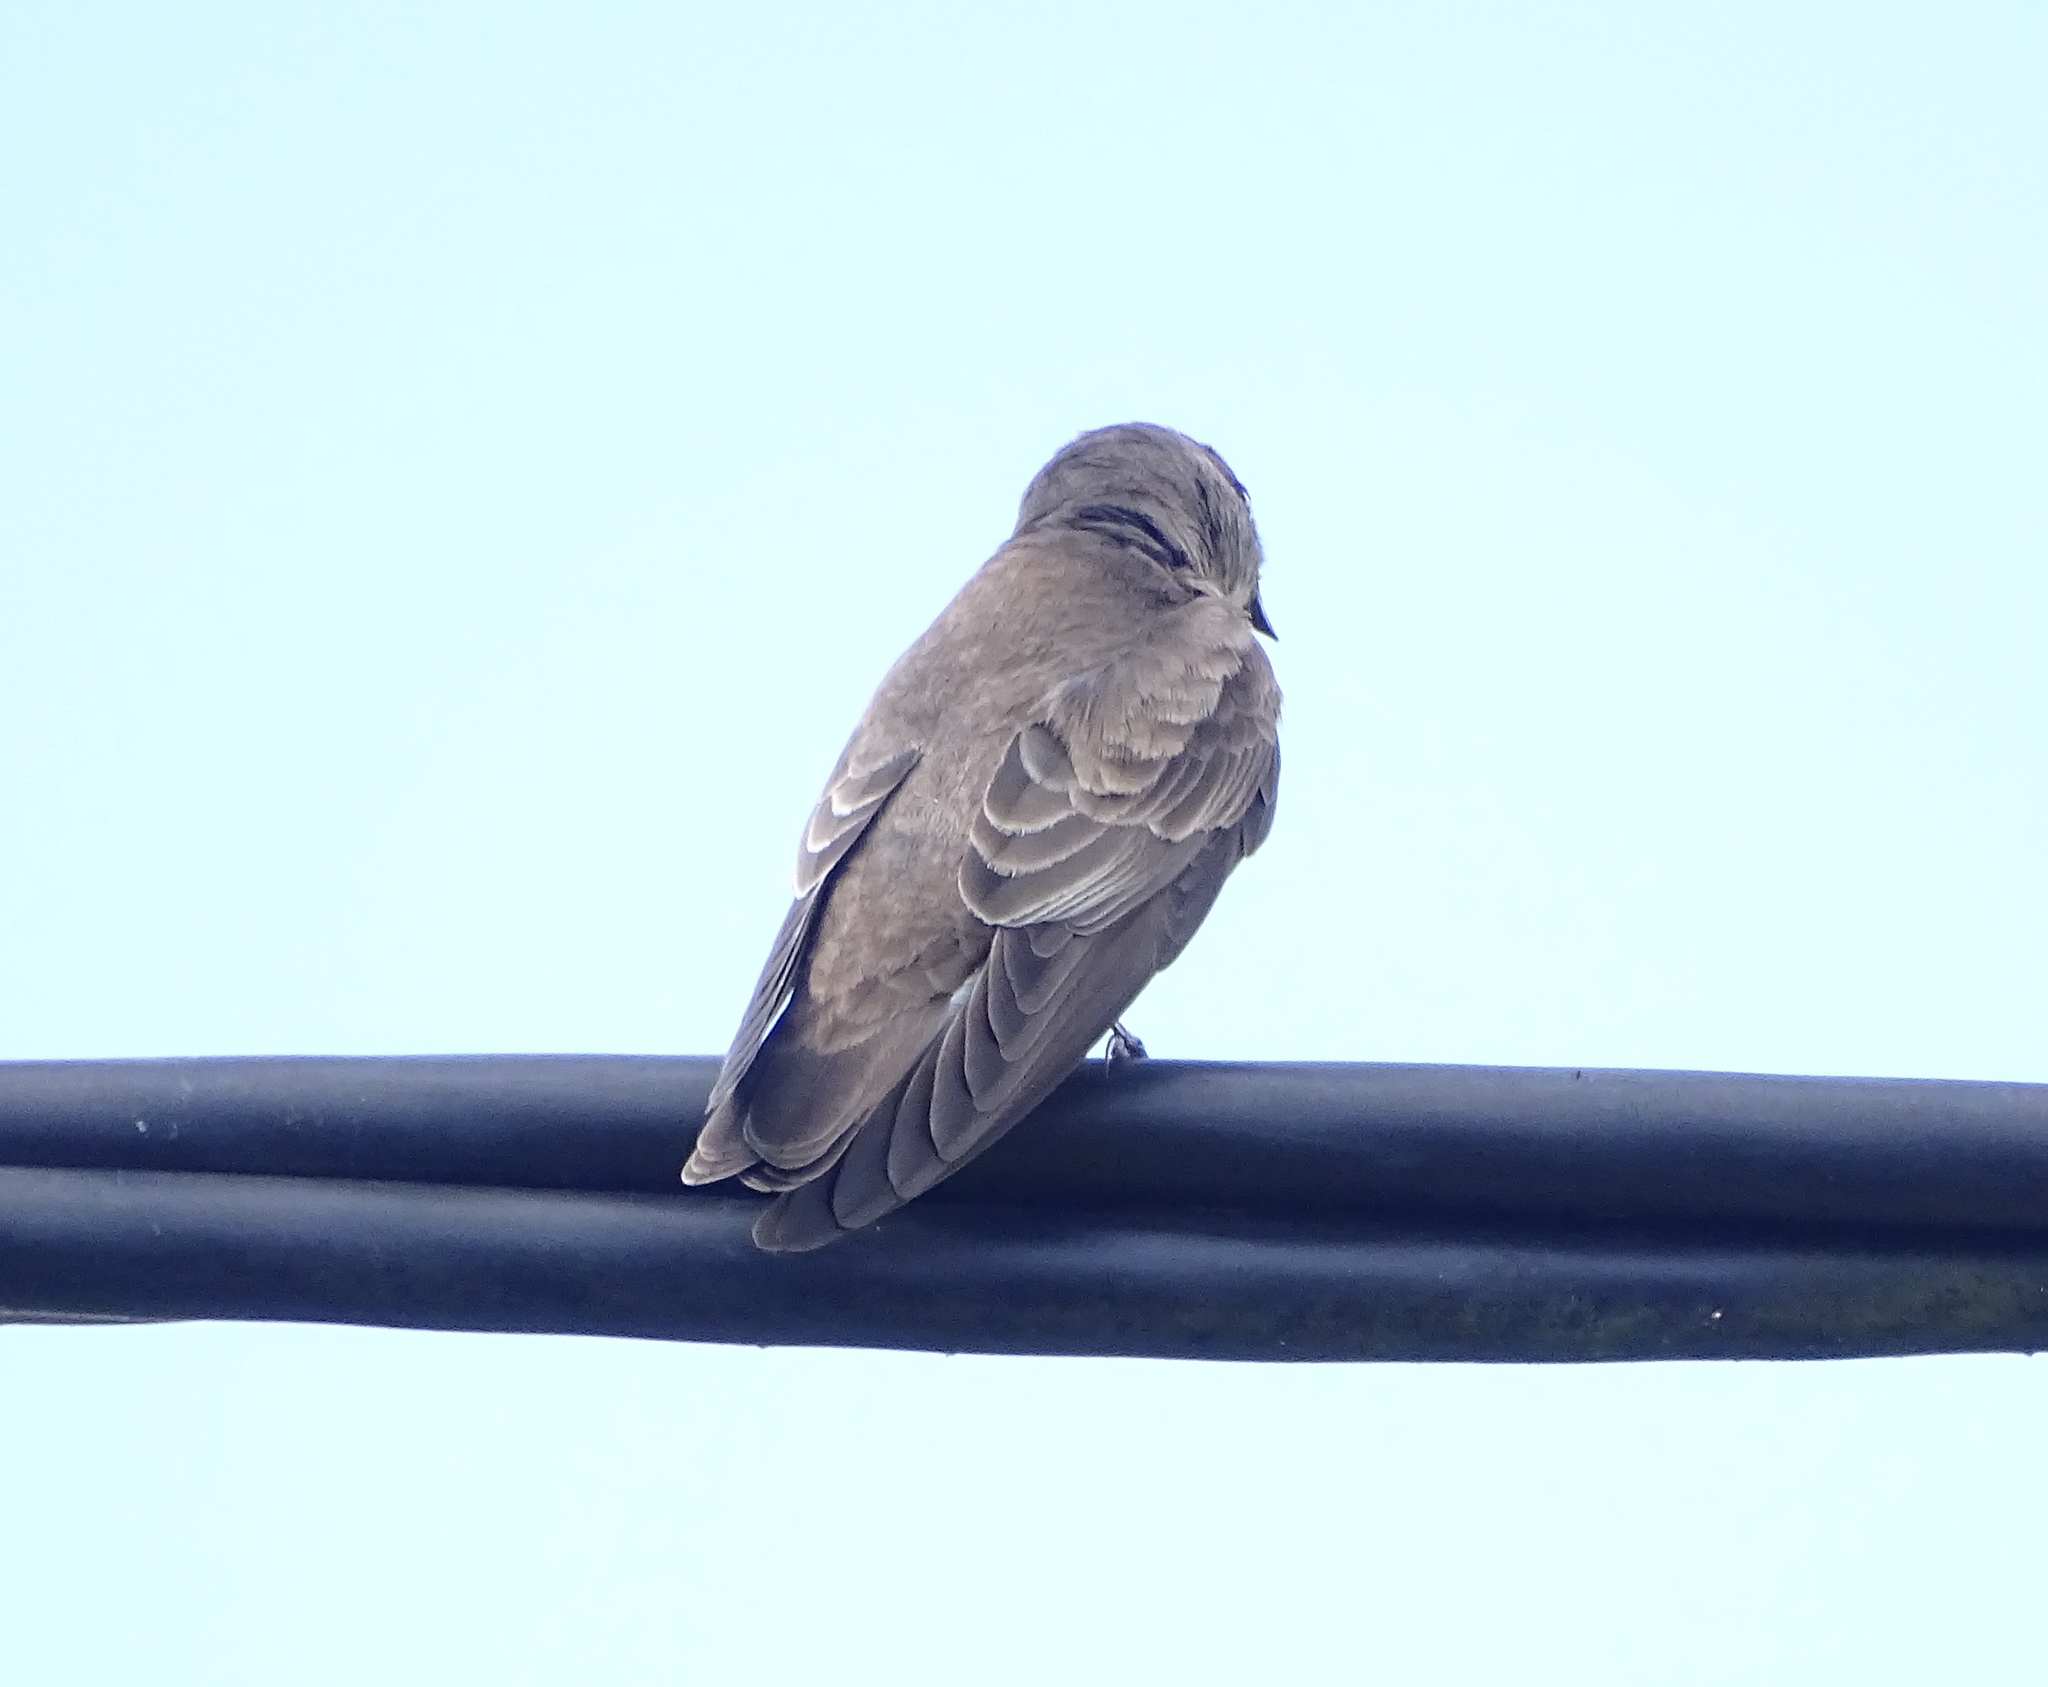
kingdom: Animalia
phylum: Chordata
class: Aves
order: Passeriformes
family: Hirundinidae
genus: Stelgidopteryx
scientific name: Stelgidopteryx serripennis
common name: Northern rough-winged swallow
